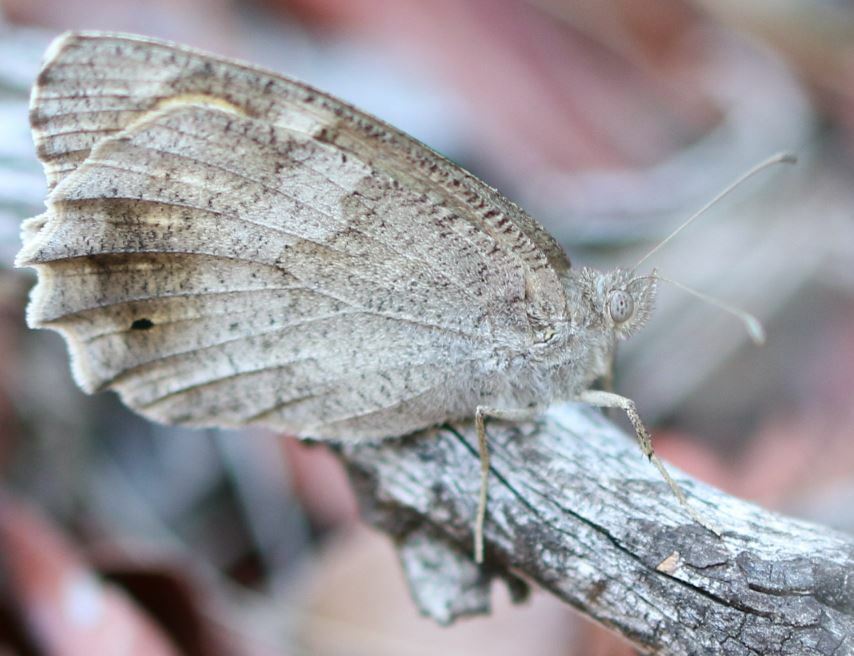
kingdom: Animalia
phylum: Arthropoda
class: Insecta
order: Lepidoptera
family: Nymphalidae
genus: Hipparchia
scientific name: Hipparchia statilinus
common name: Tree grayling
